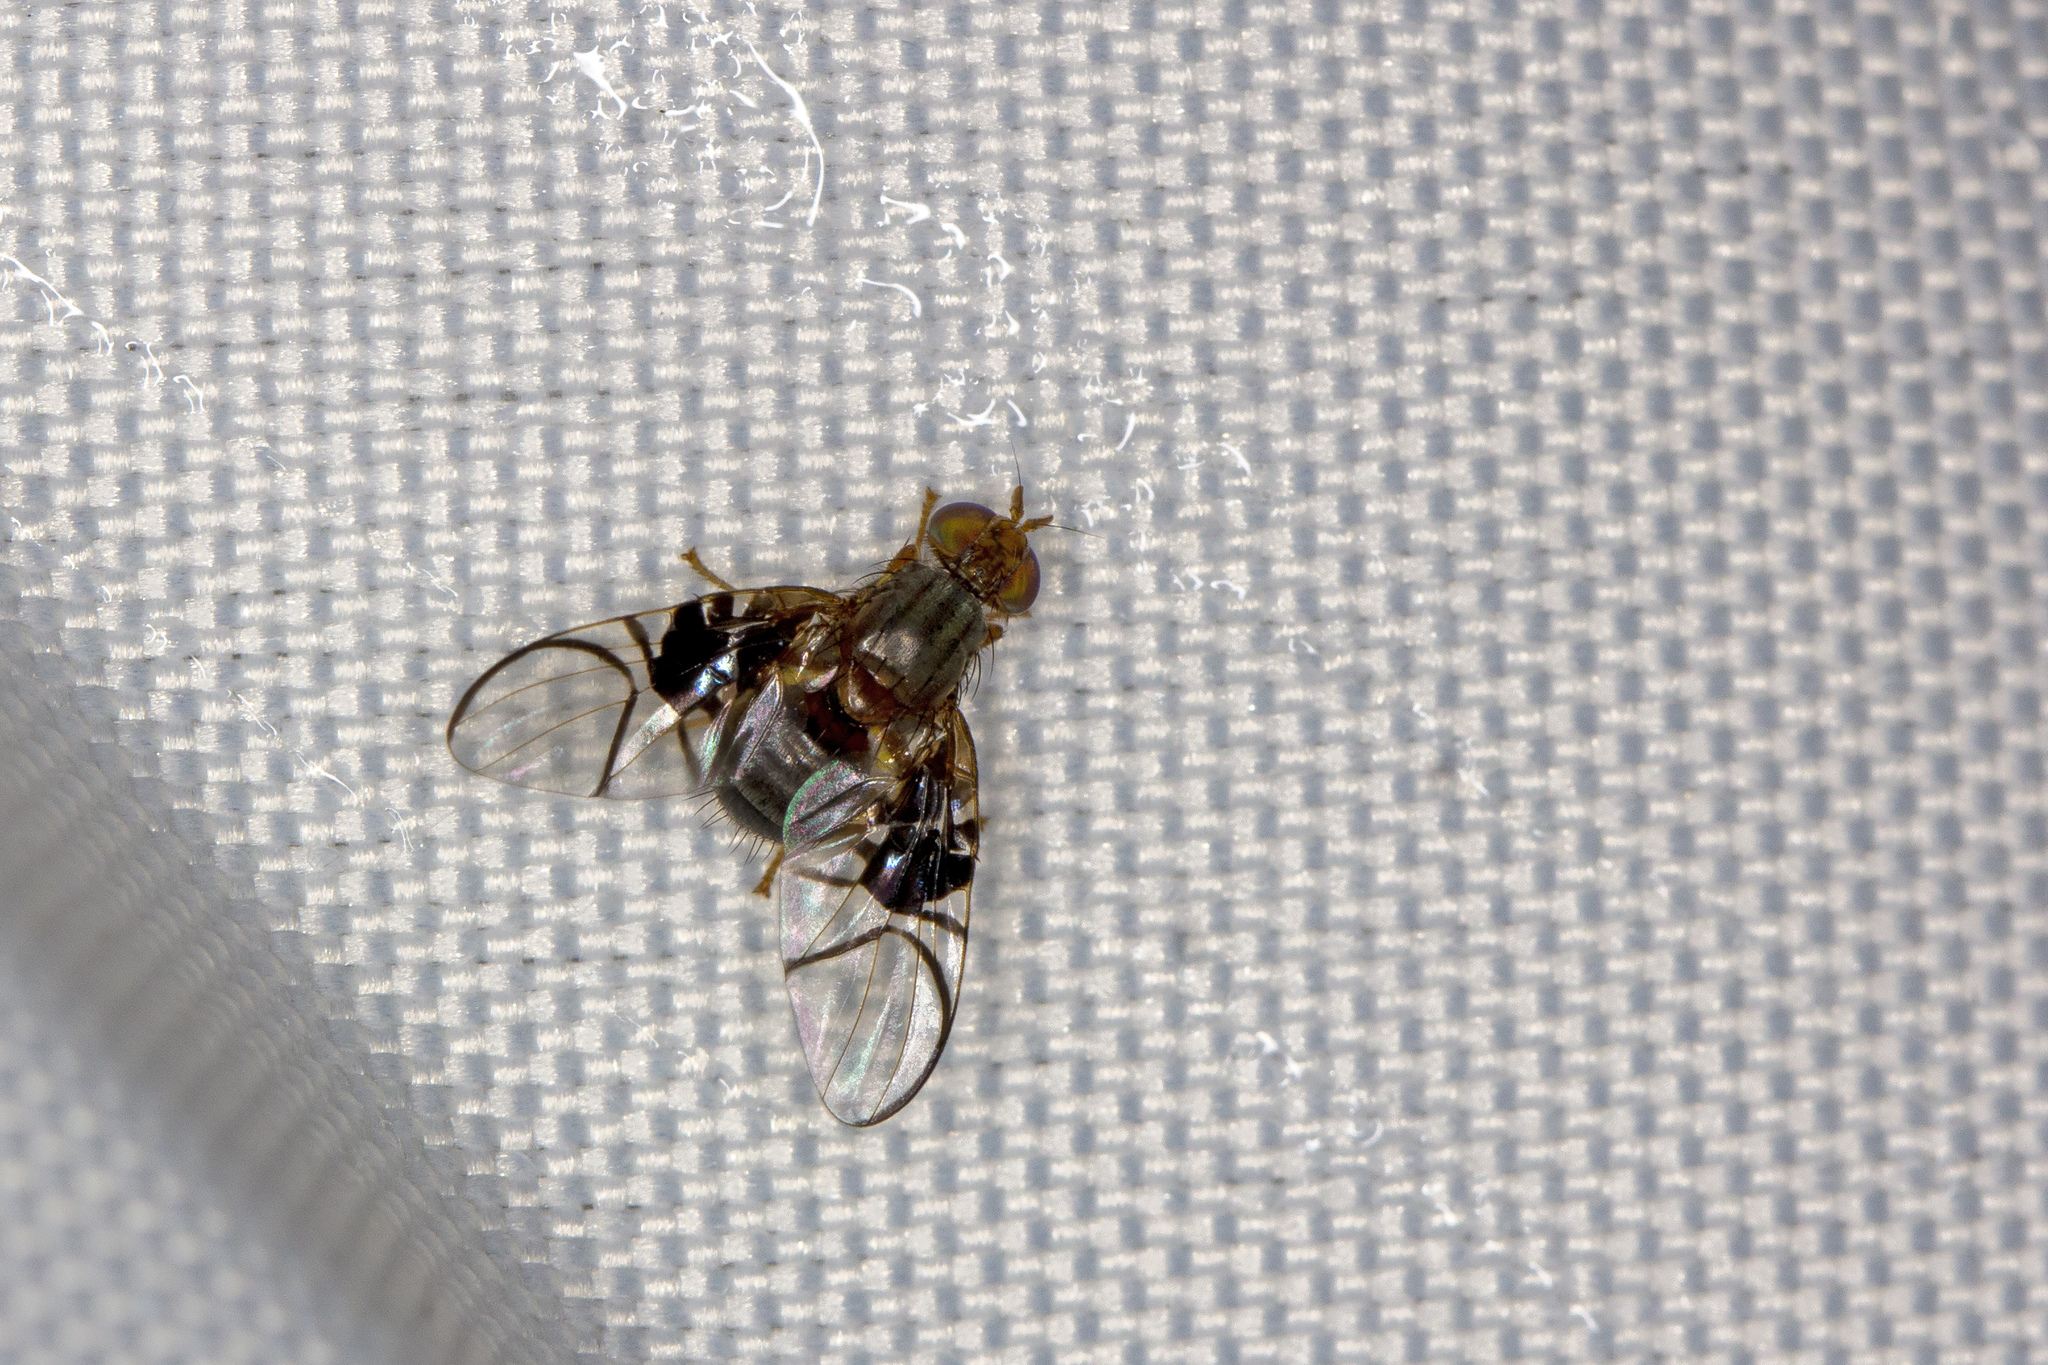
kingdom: Animalia
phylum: Arthropoda
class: Insecta
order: Diptera
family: Tephritidae
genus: Anomoia
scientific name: Anomoia purmunda
